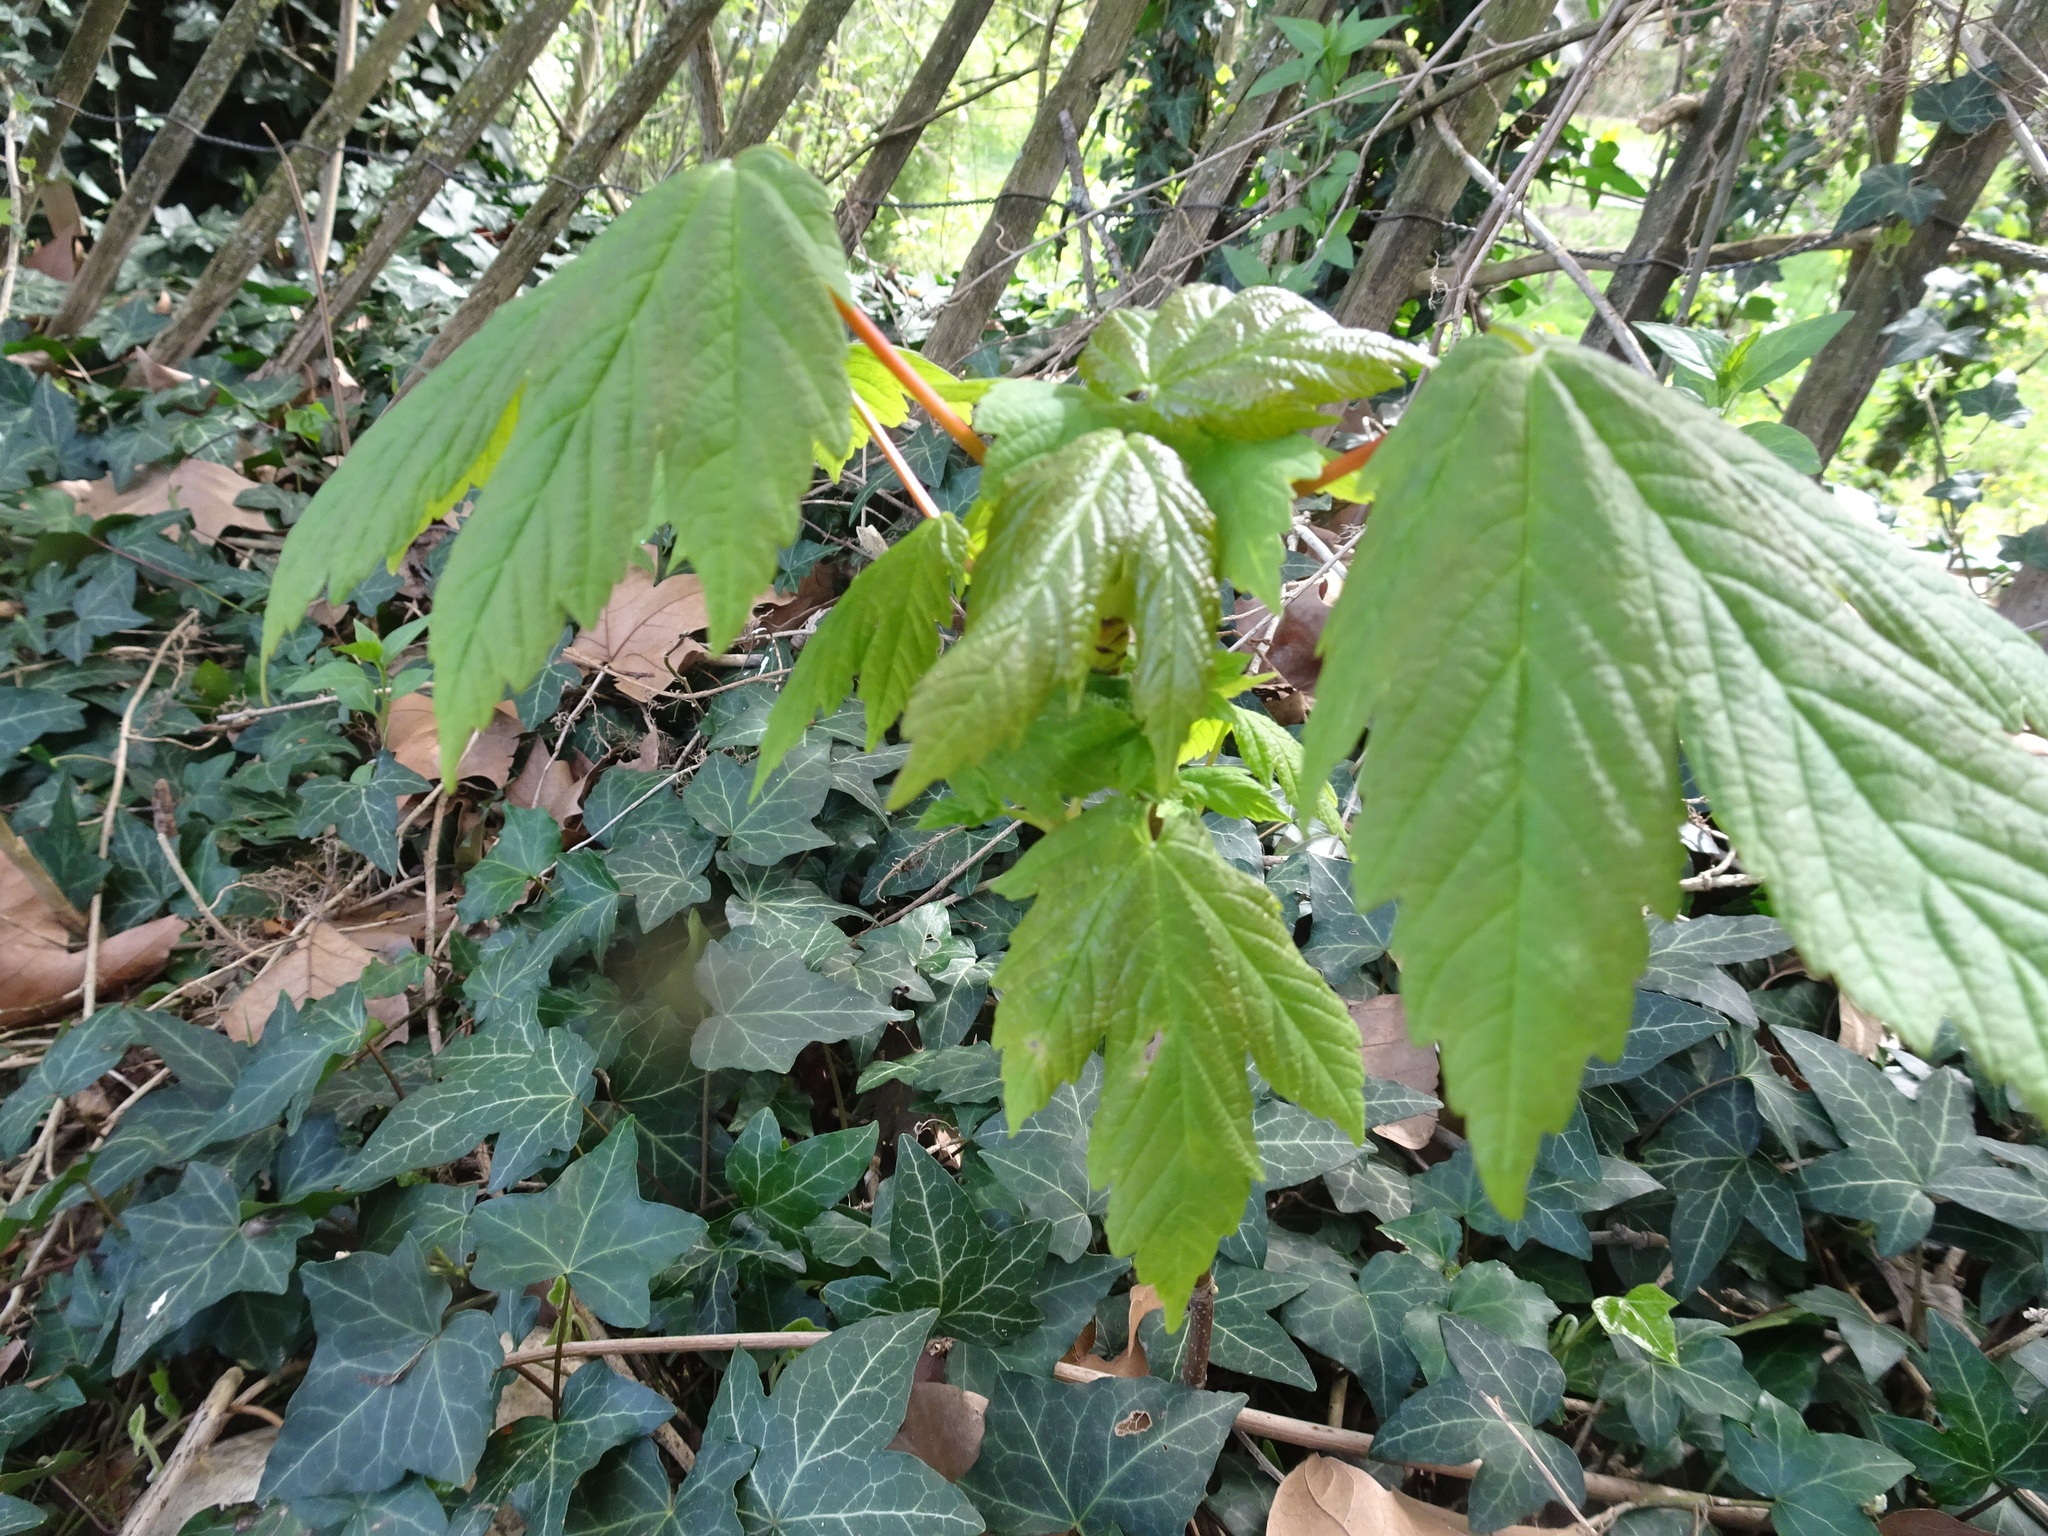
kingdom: Plantae
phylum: Tracheophyta
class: Magnoliopsida
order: Sapindales
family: Sapindaceae
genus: Acer
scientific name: Acer pseudoplatanus
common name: Sycamore
